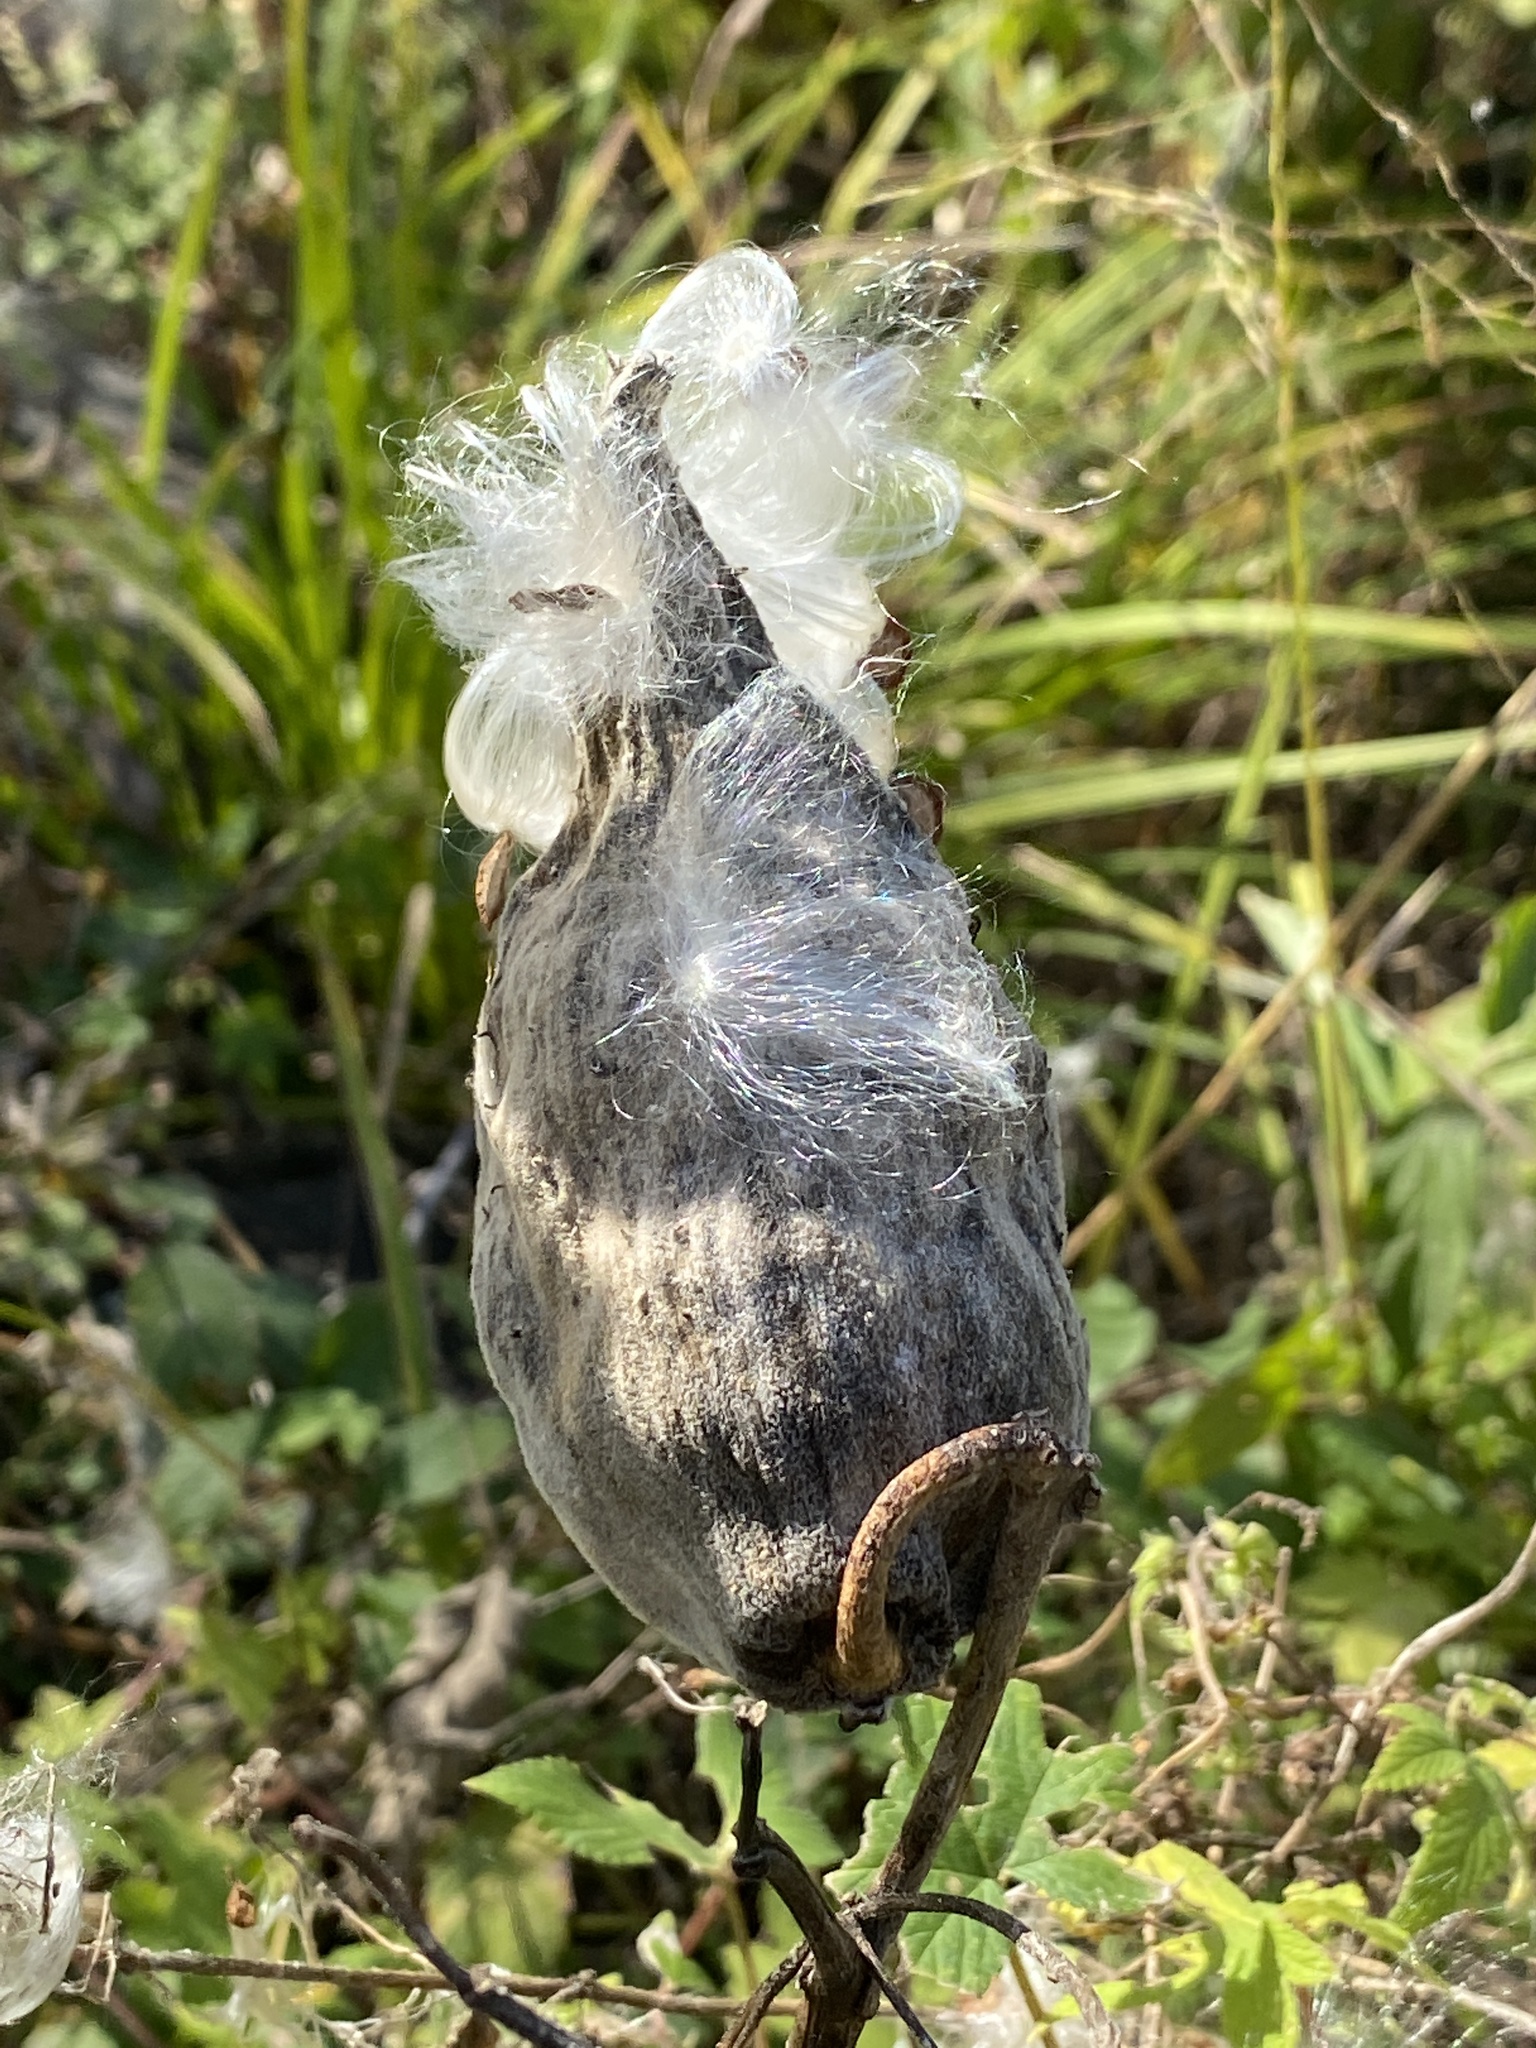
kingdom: Plantae
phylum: Tracheophyta
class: Magnoliopsida
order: Gentianales
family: Apocynaceae
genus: Asclepias
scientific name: Asclepias syriaca
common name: Common milkweed
